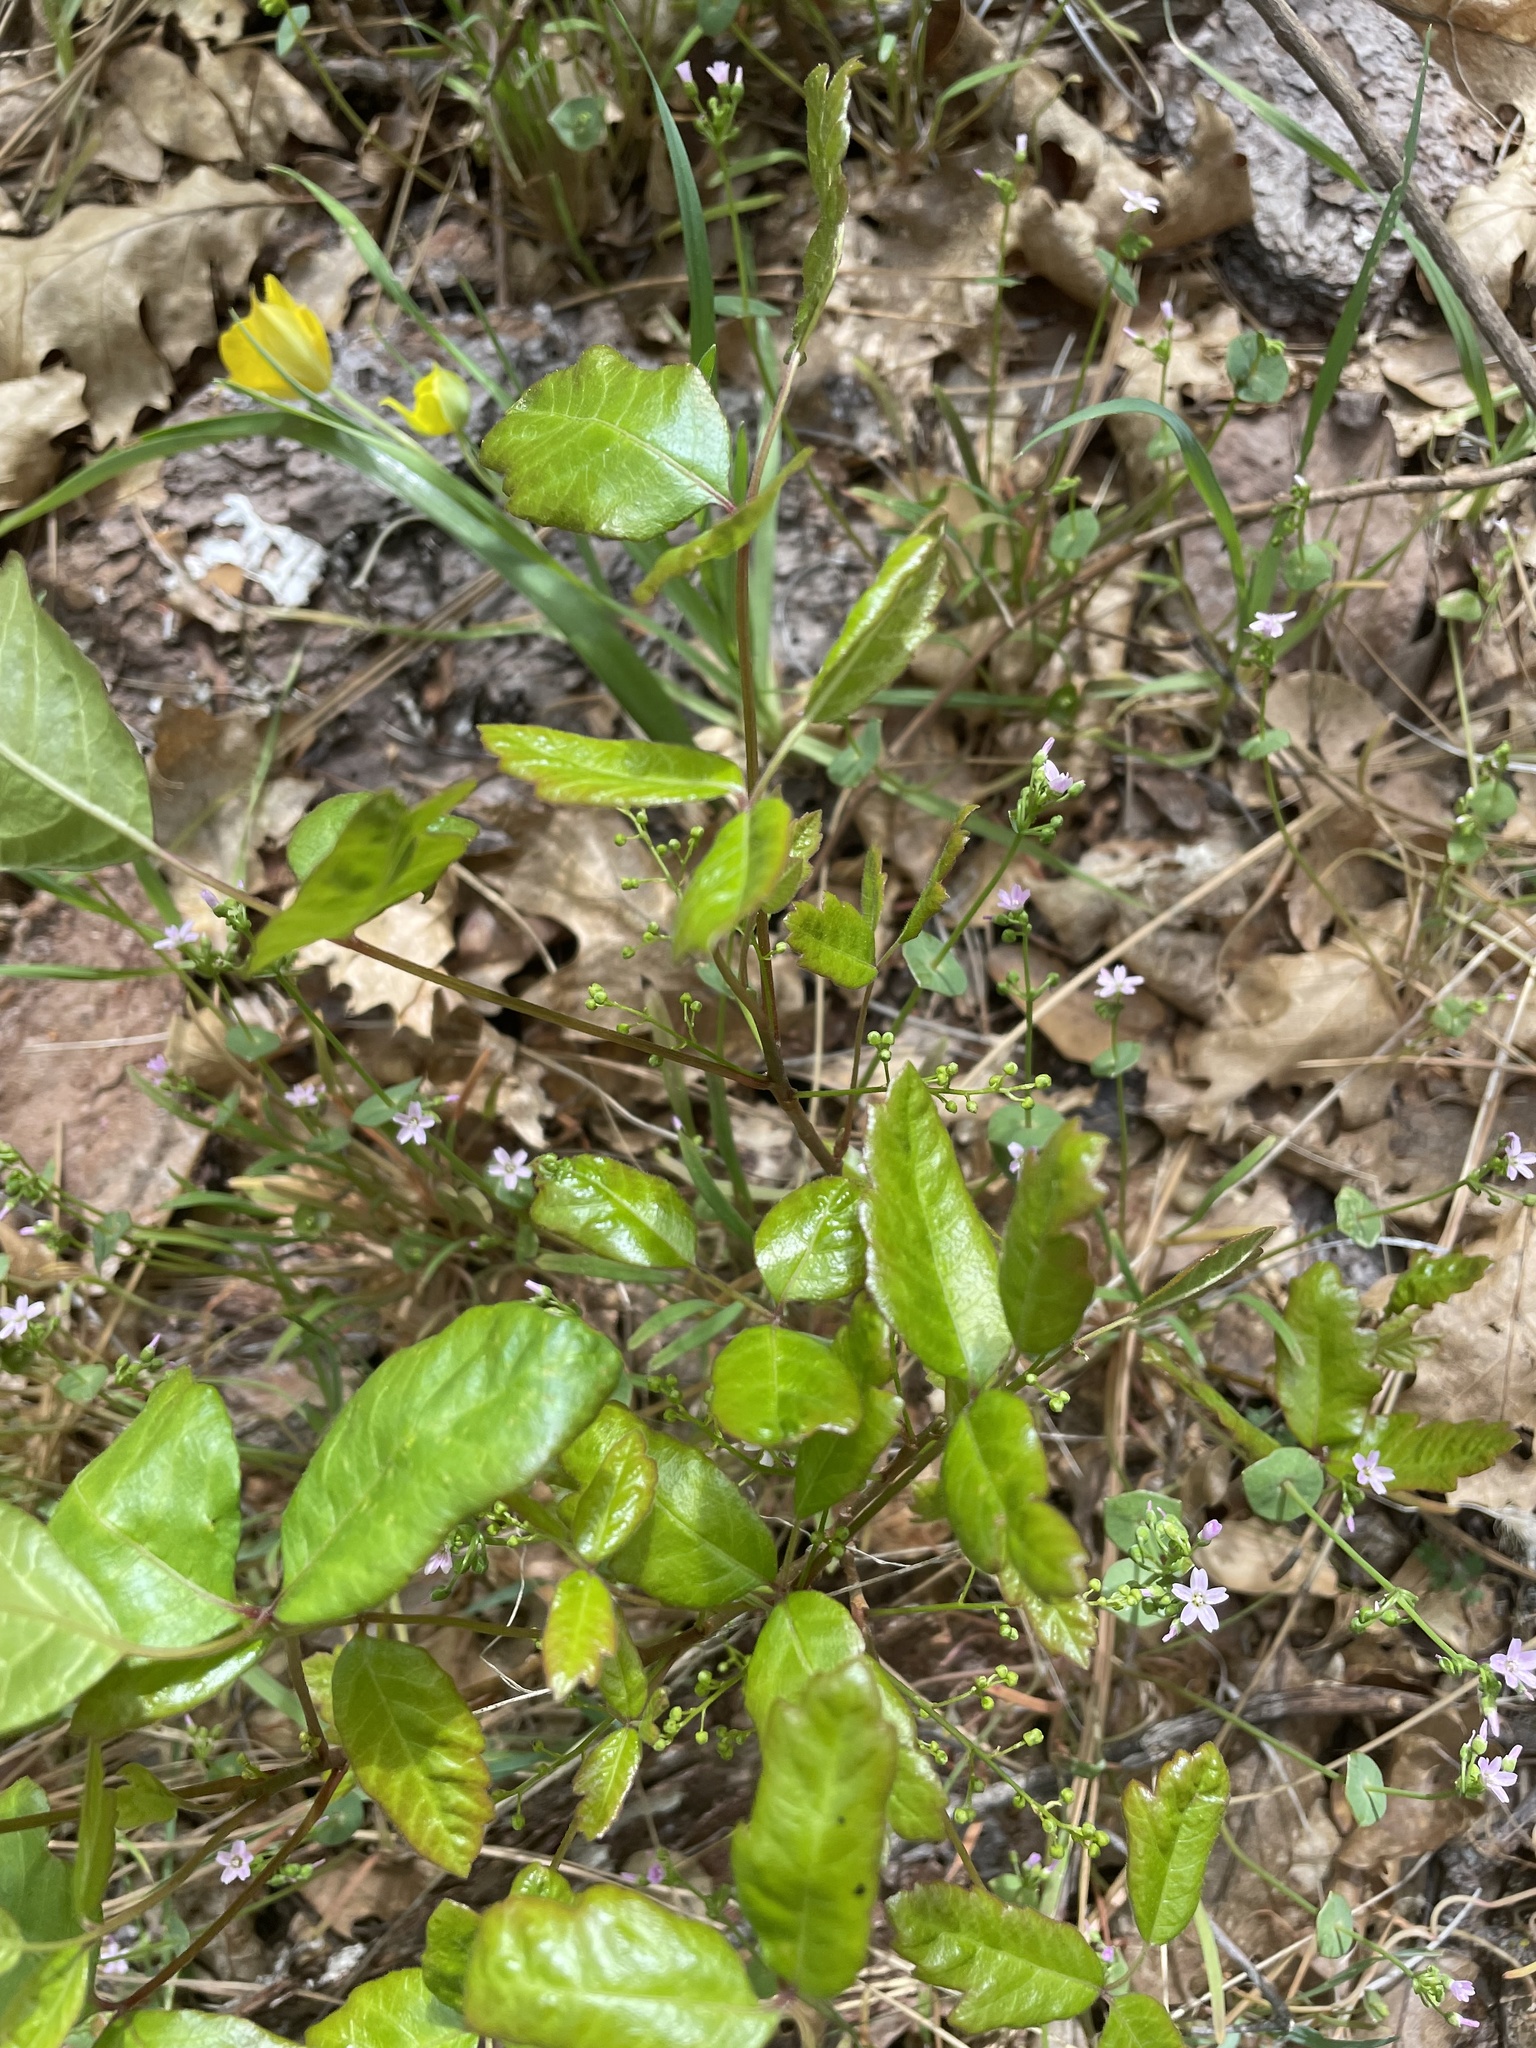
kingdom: Plantae
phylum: Tracheophyta
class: Magnoliopsida
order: Sapindales
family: Anacardiaceae
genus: Toxicodendron
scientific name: Toxicodendron diversilobum
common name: Pacific poison-oak
